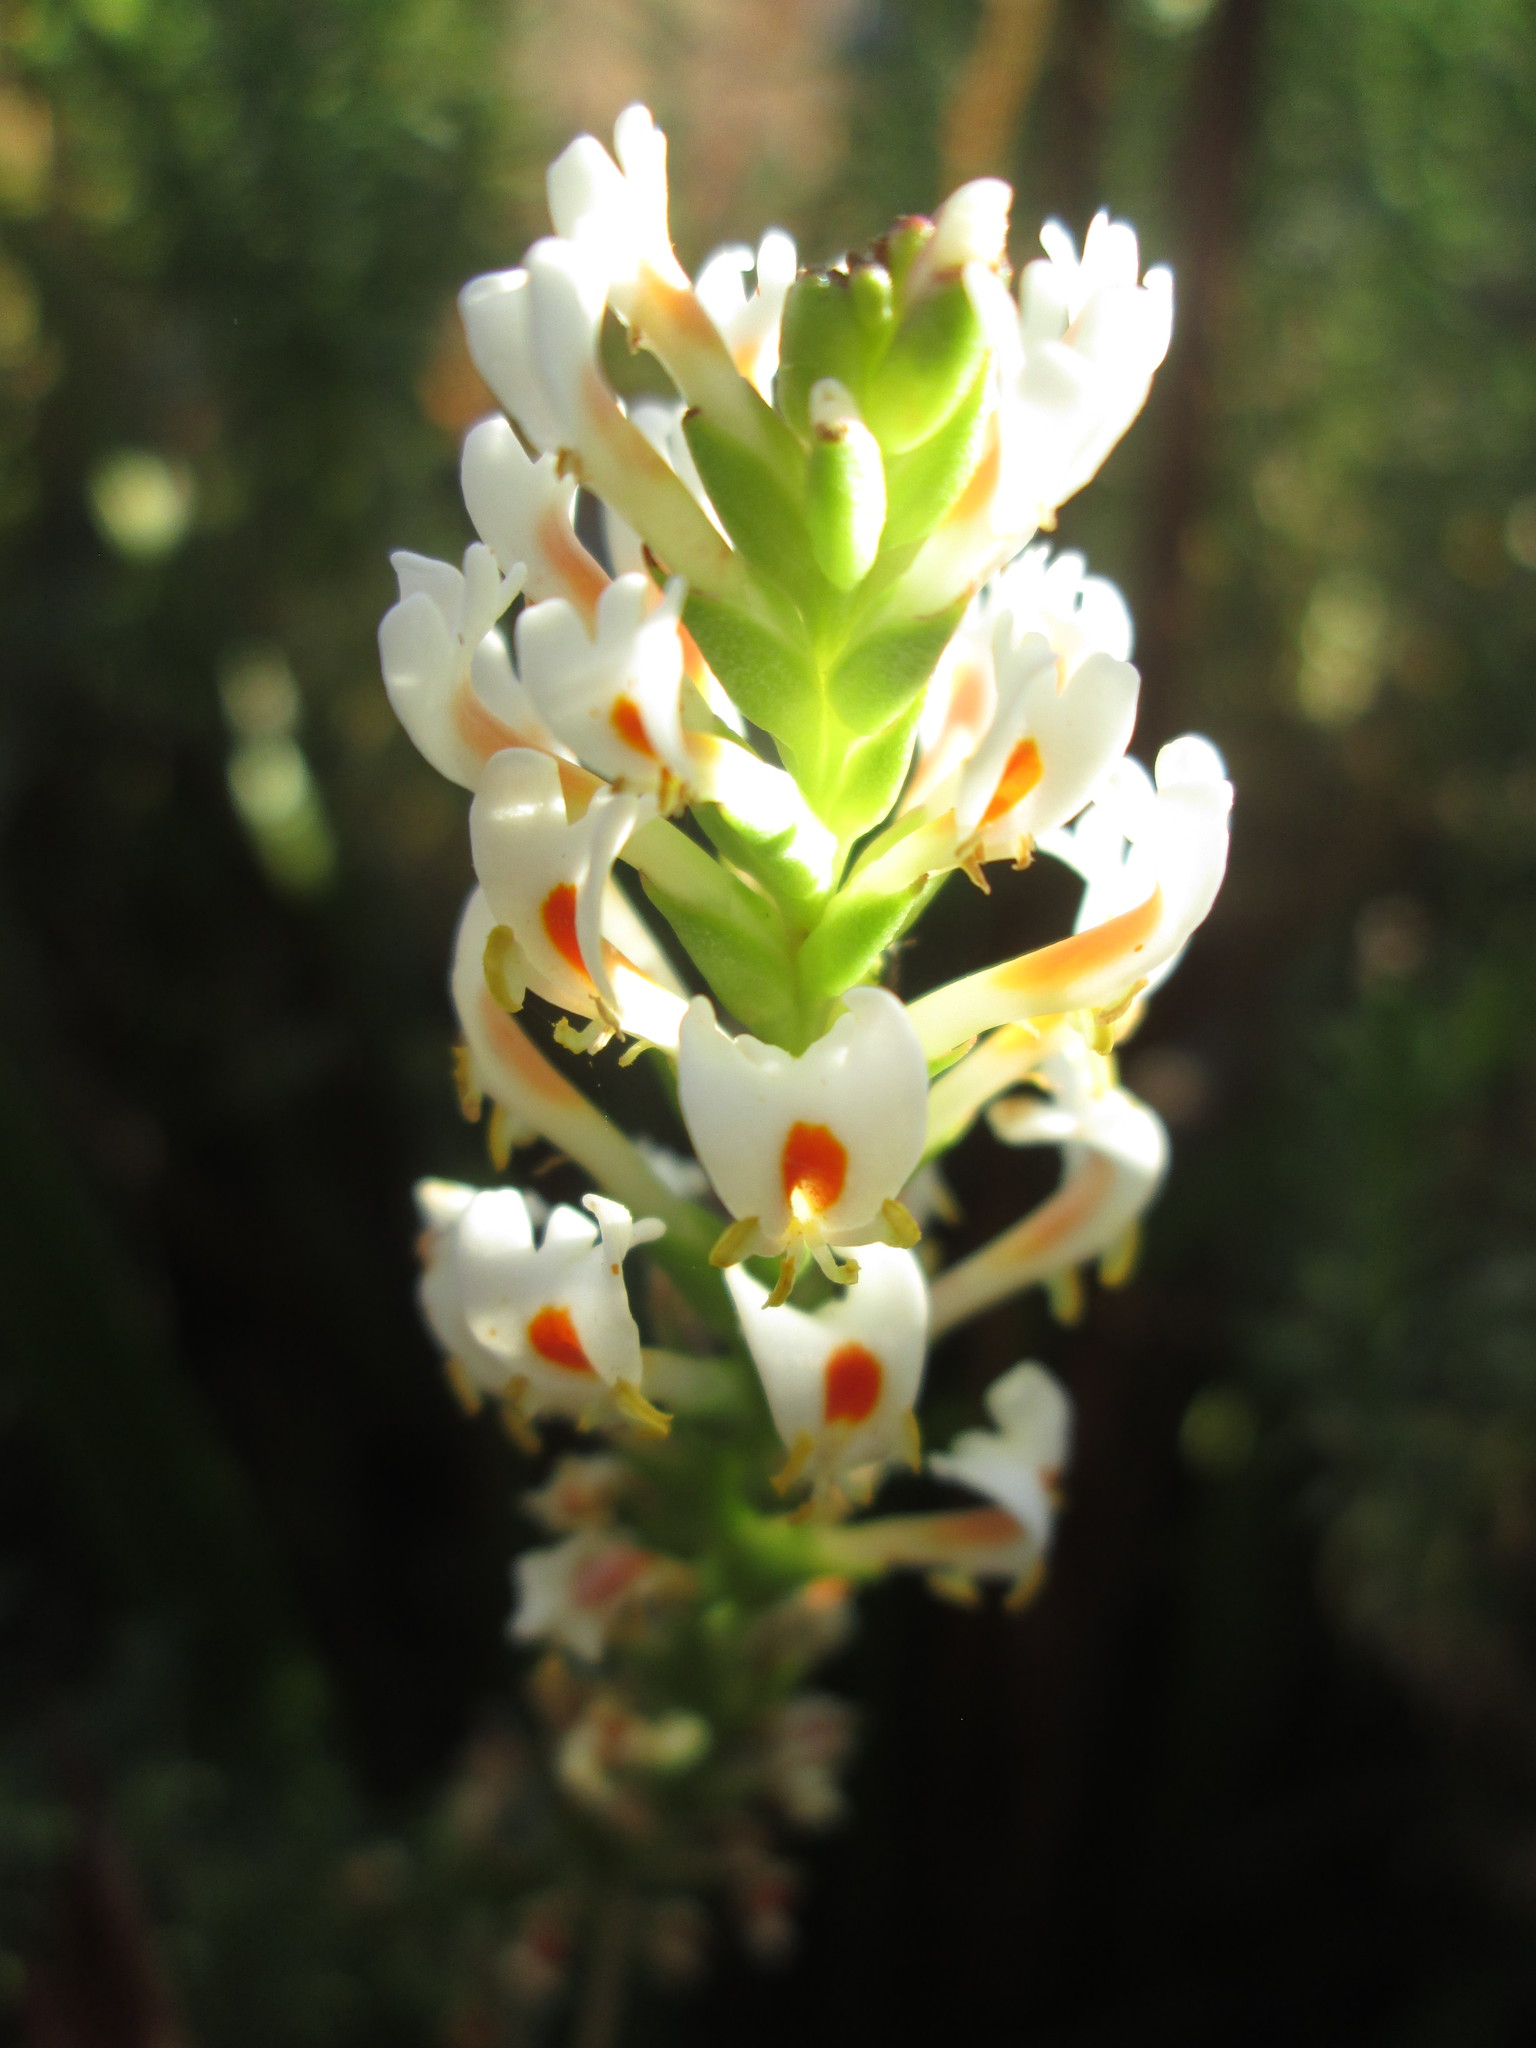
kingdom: Plantae
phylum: Tracheophyta
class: Magnoliopsida
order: Lamiales
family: Scrophulariaceae
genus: Hebenstretia
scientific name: Hebenstretia dura
